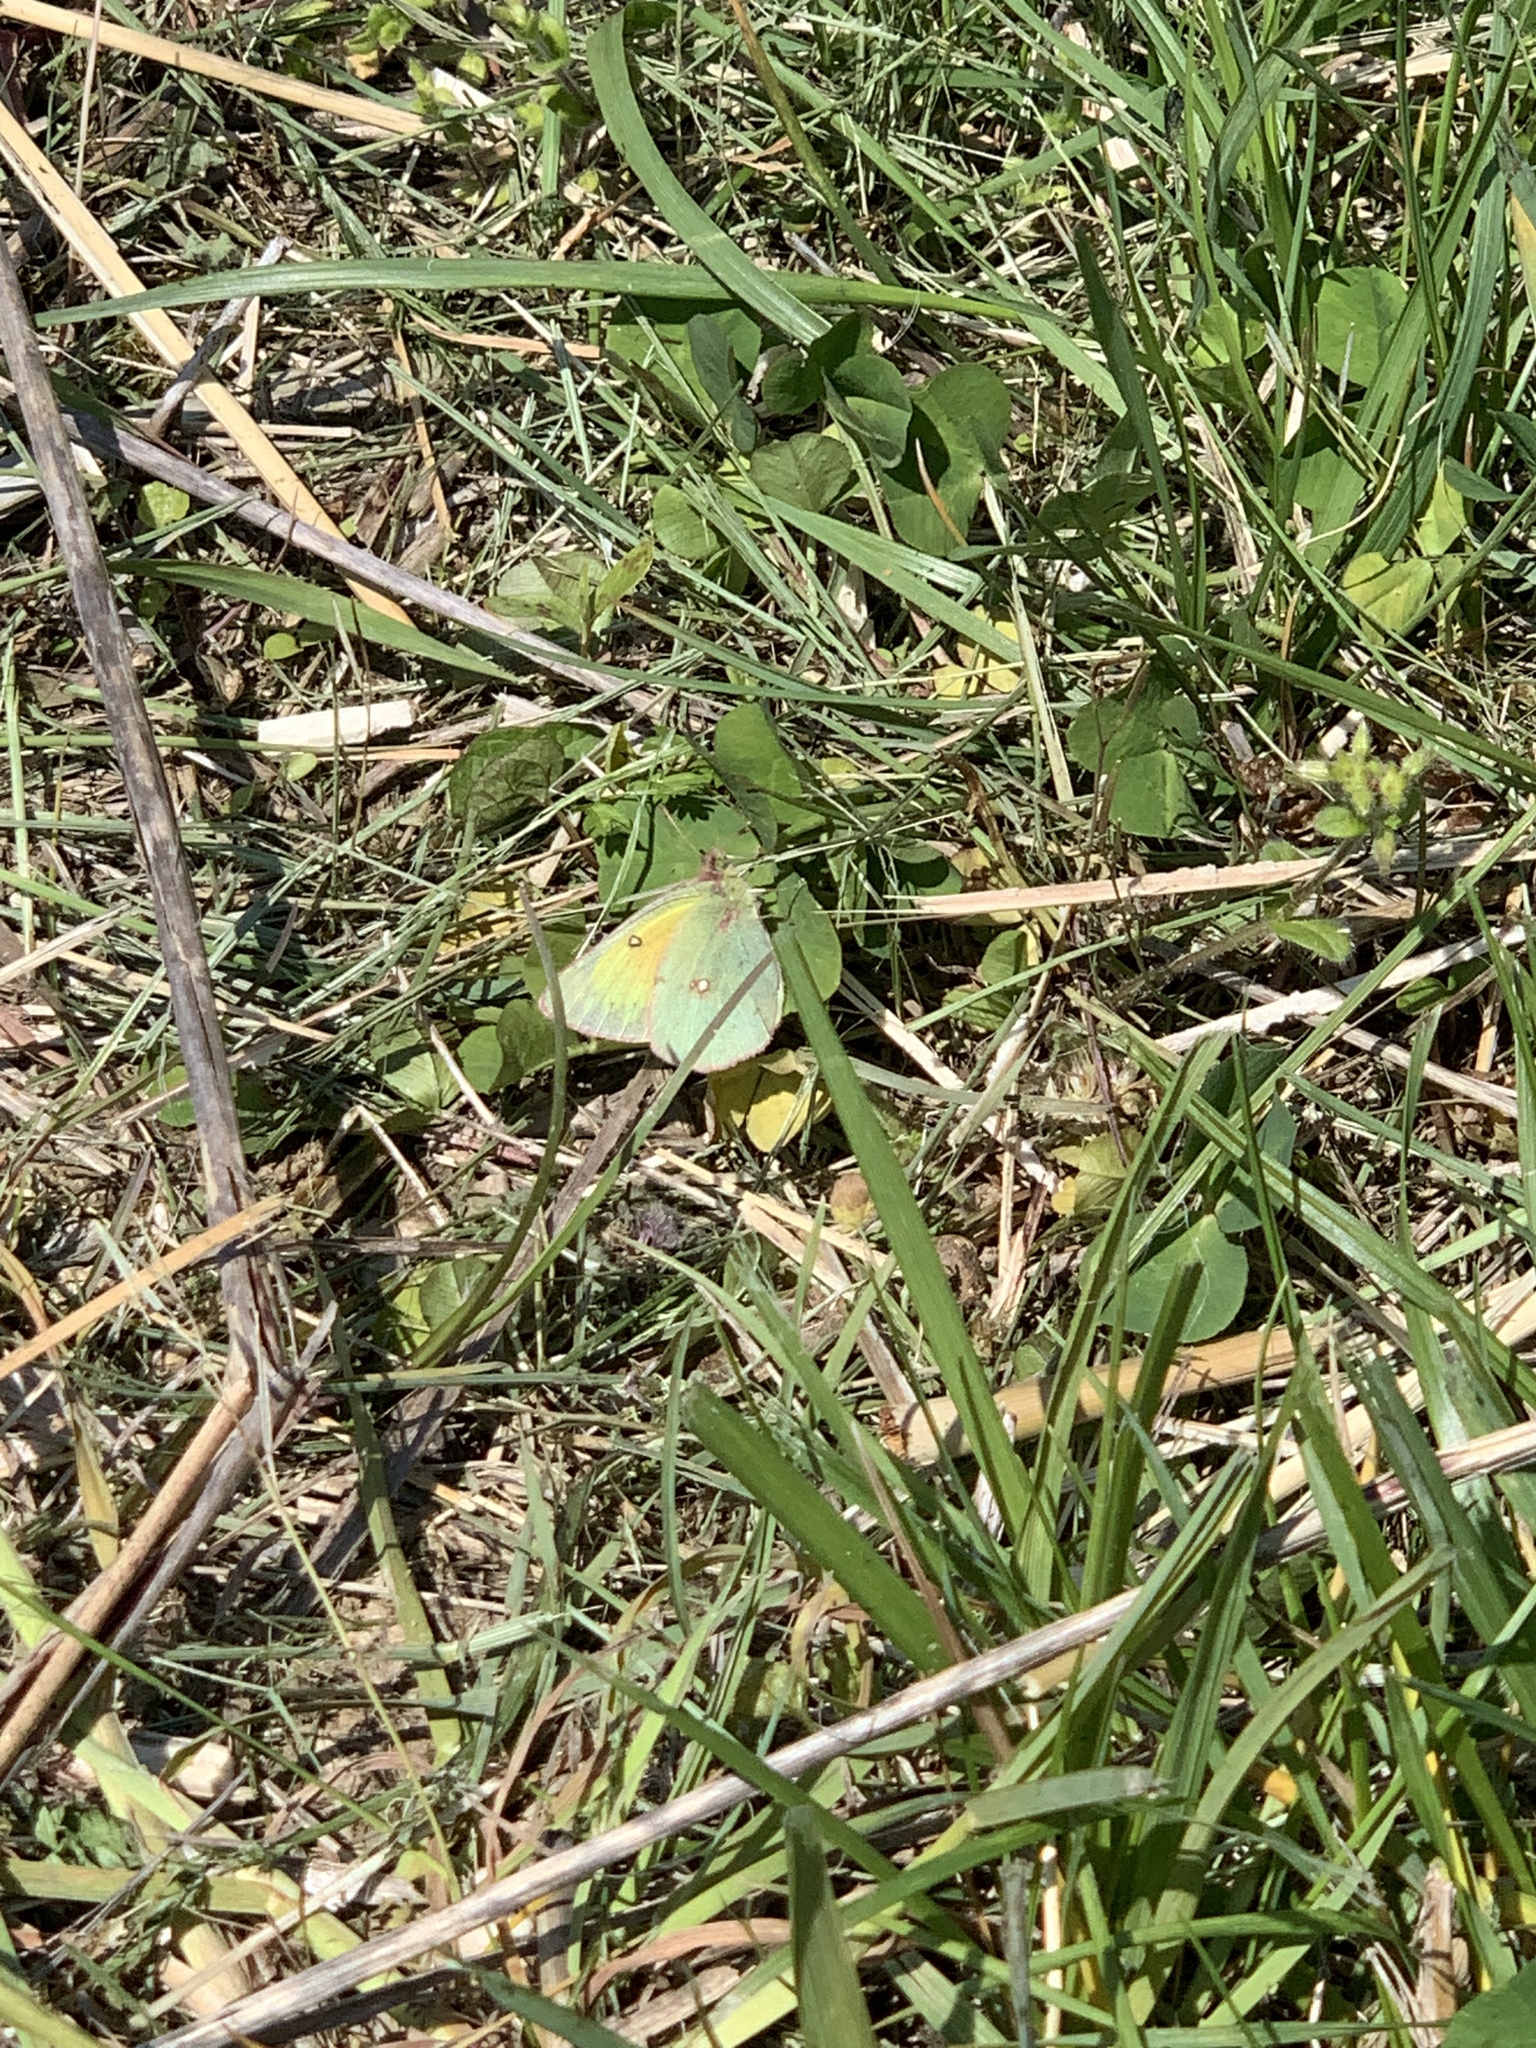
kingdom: Animalia
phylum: Arthropoda
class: Insecta
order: Lepidoptera
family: Pieridae
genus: Colias
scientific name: Colias eurytheme
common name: Alfalfa butterfly
